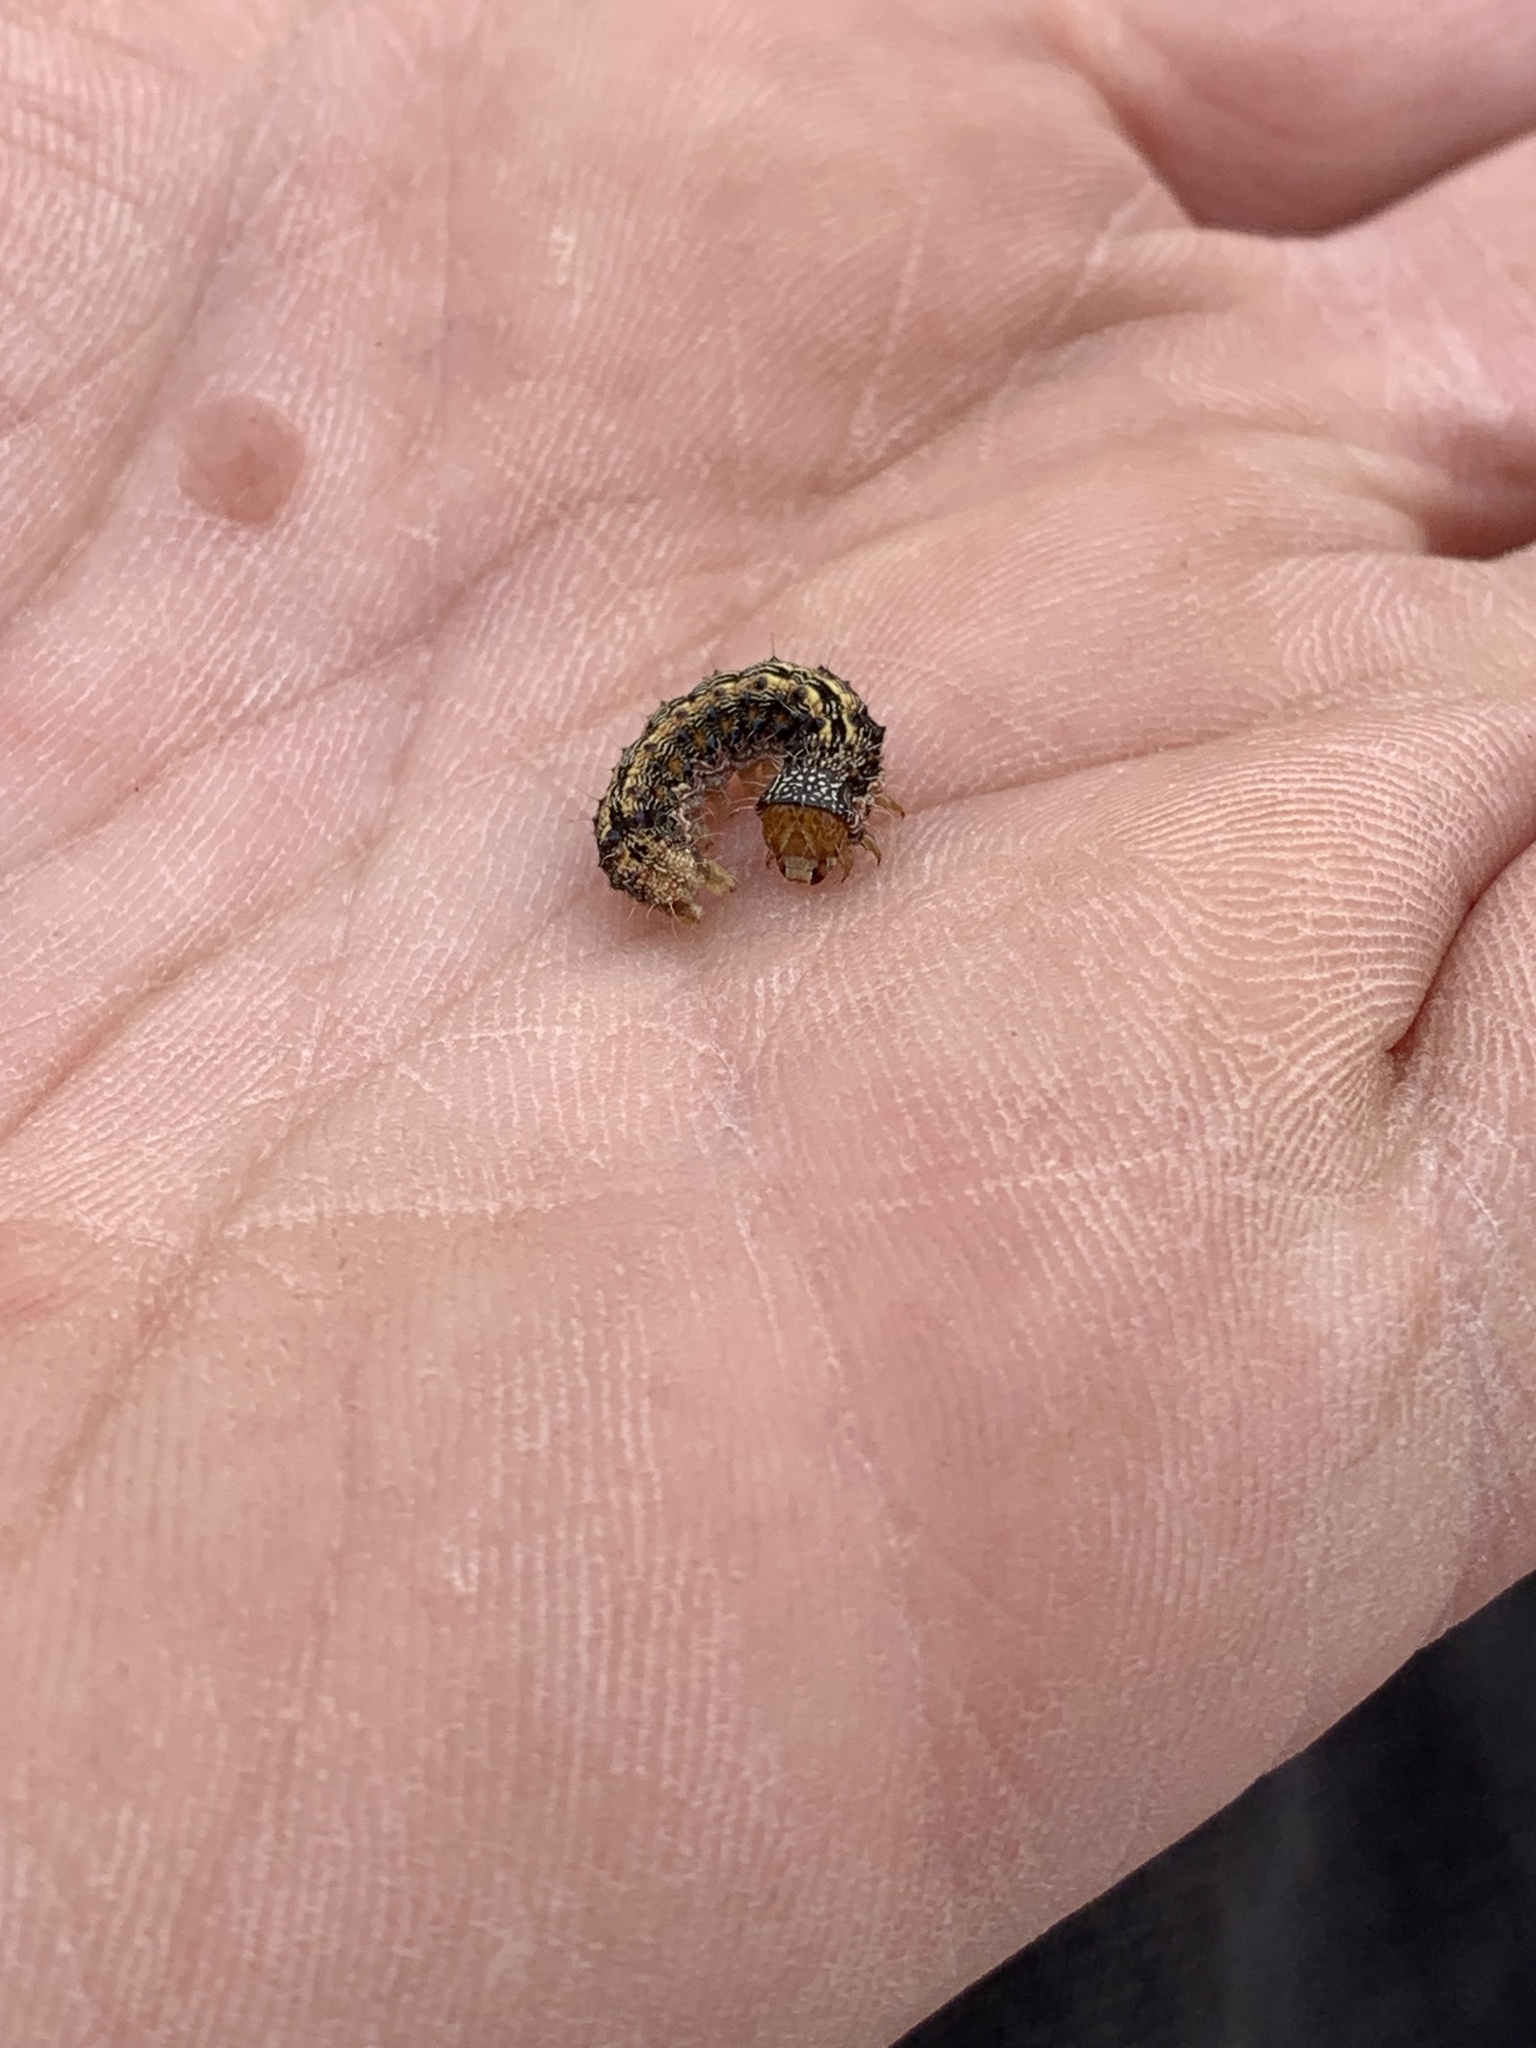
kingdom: Animalia
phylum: Arthropoda
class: Insecta
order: Lepidoptera
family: Noctuidae
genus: Helicoverpa
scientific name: Helicoverpa armigera
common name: Cotton bollworm
